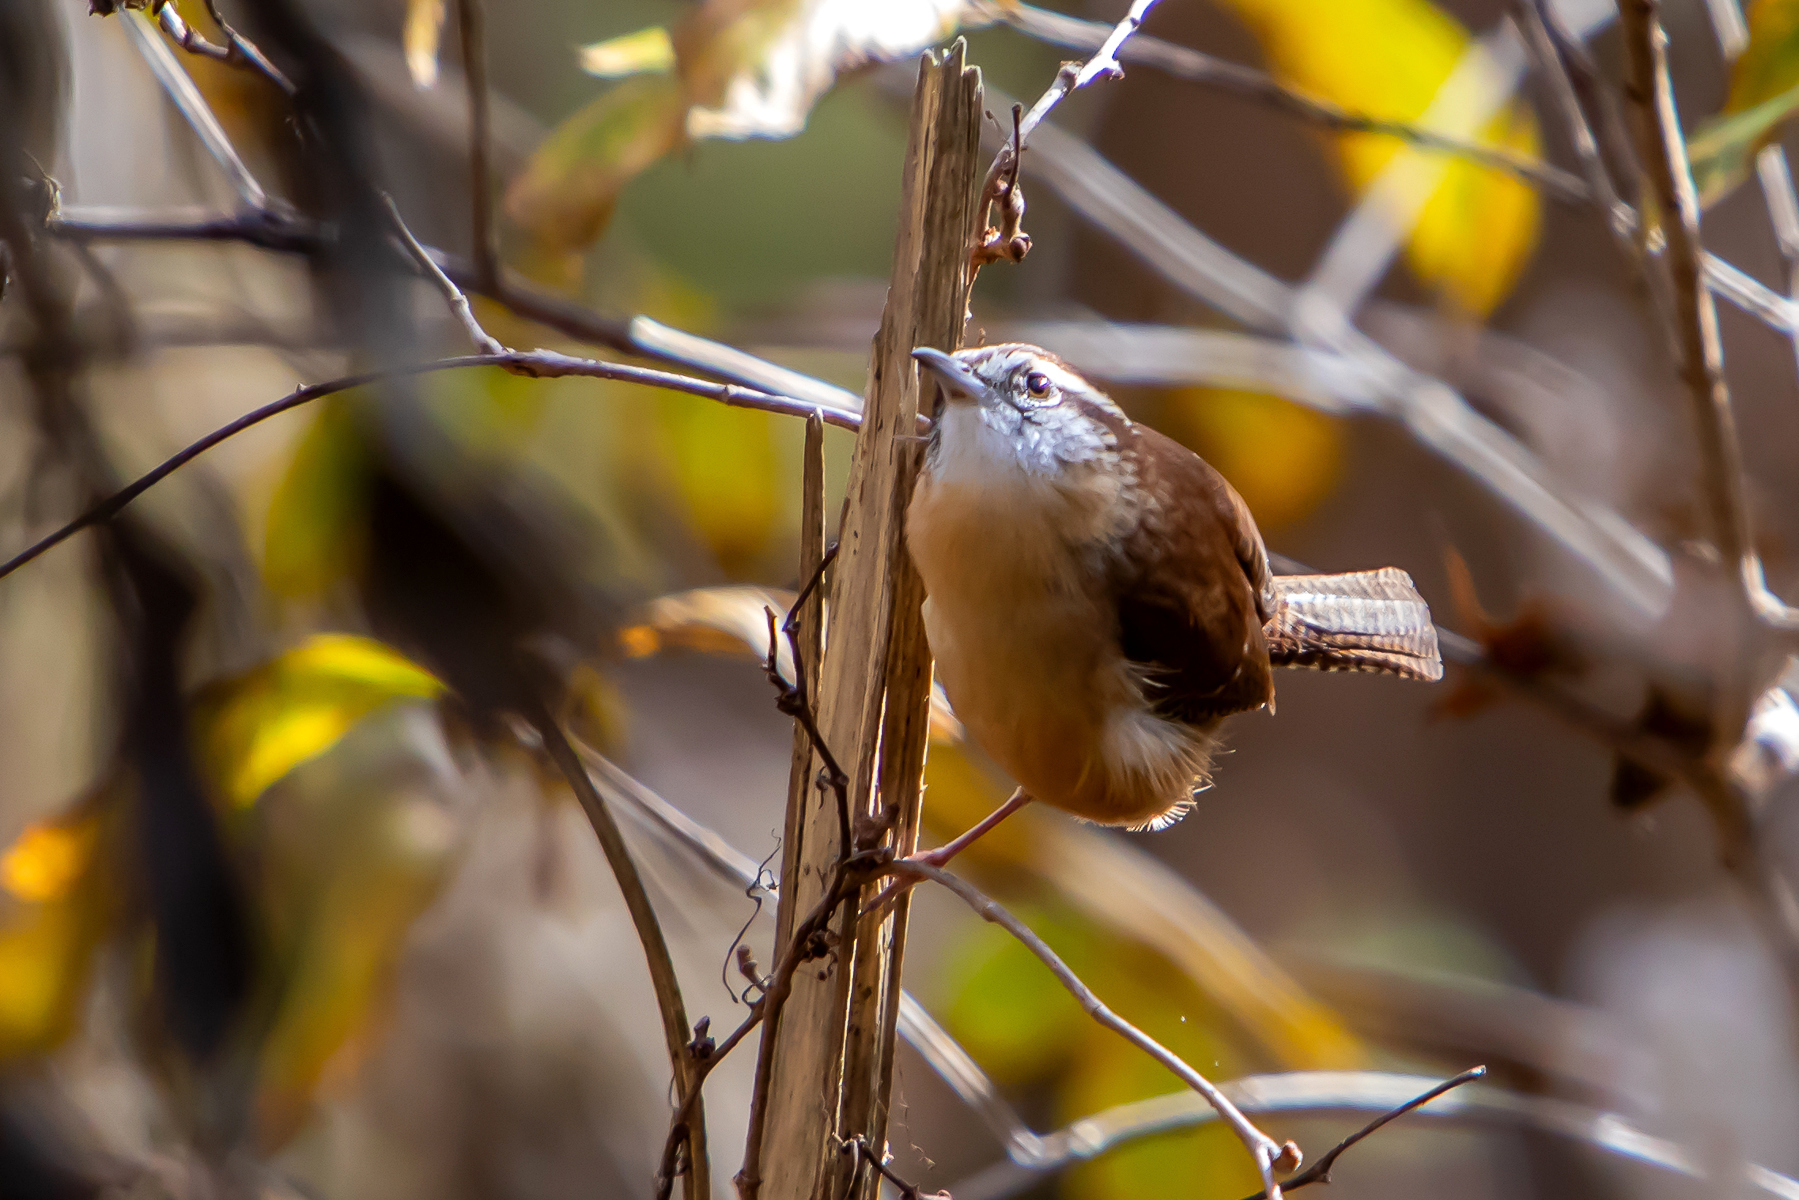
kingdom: Animalia
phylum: Chordata
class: Aves
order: Passeriformes
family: Troglodytidae
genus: Thryothorus
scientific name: Thryothorus ludovicianus
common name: Carolina wren
